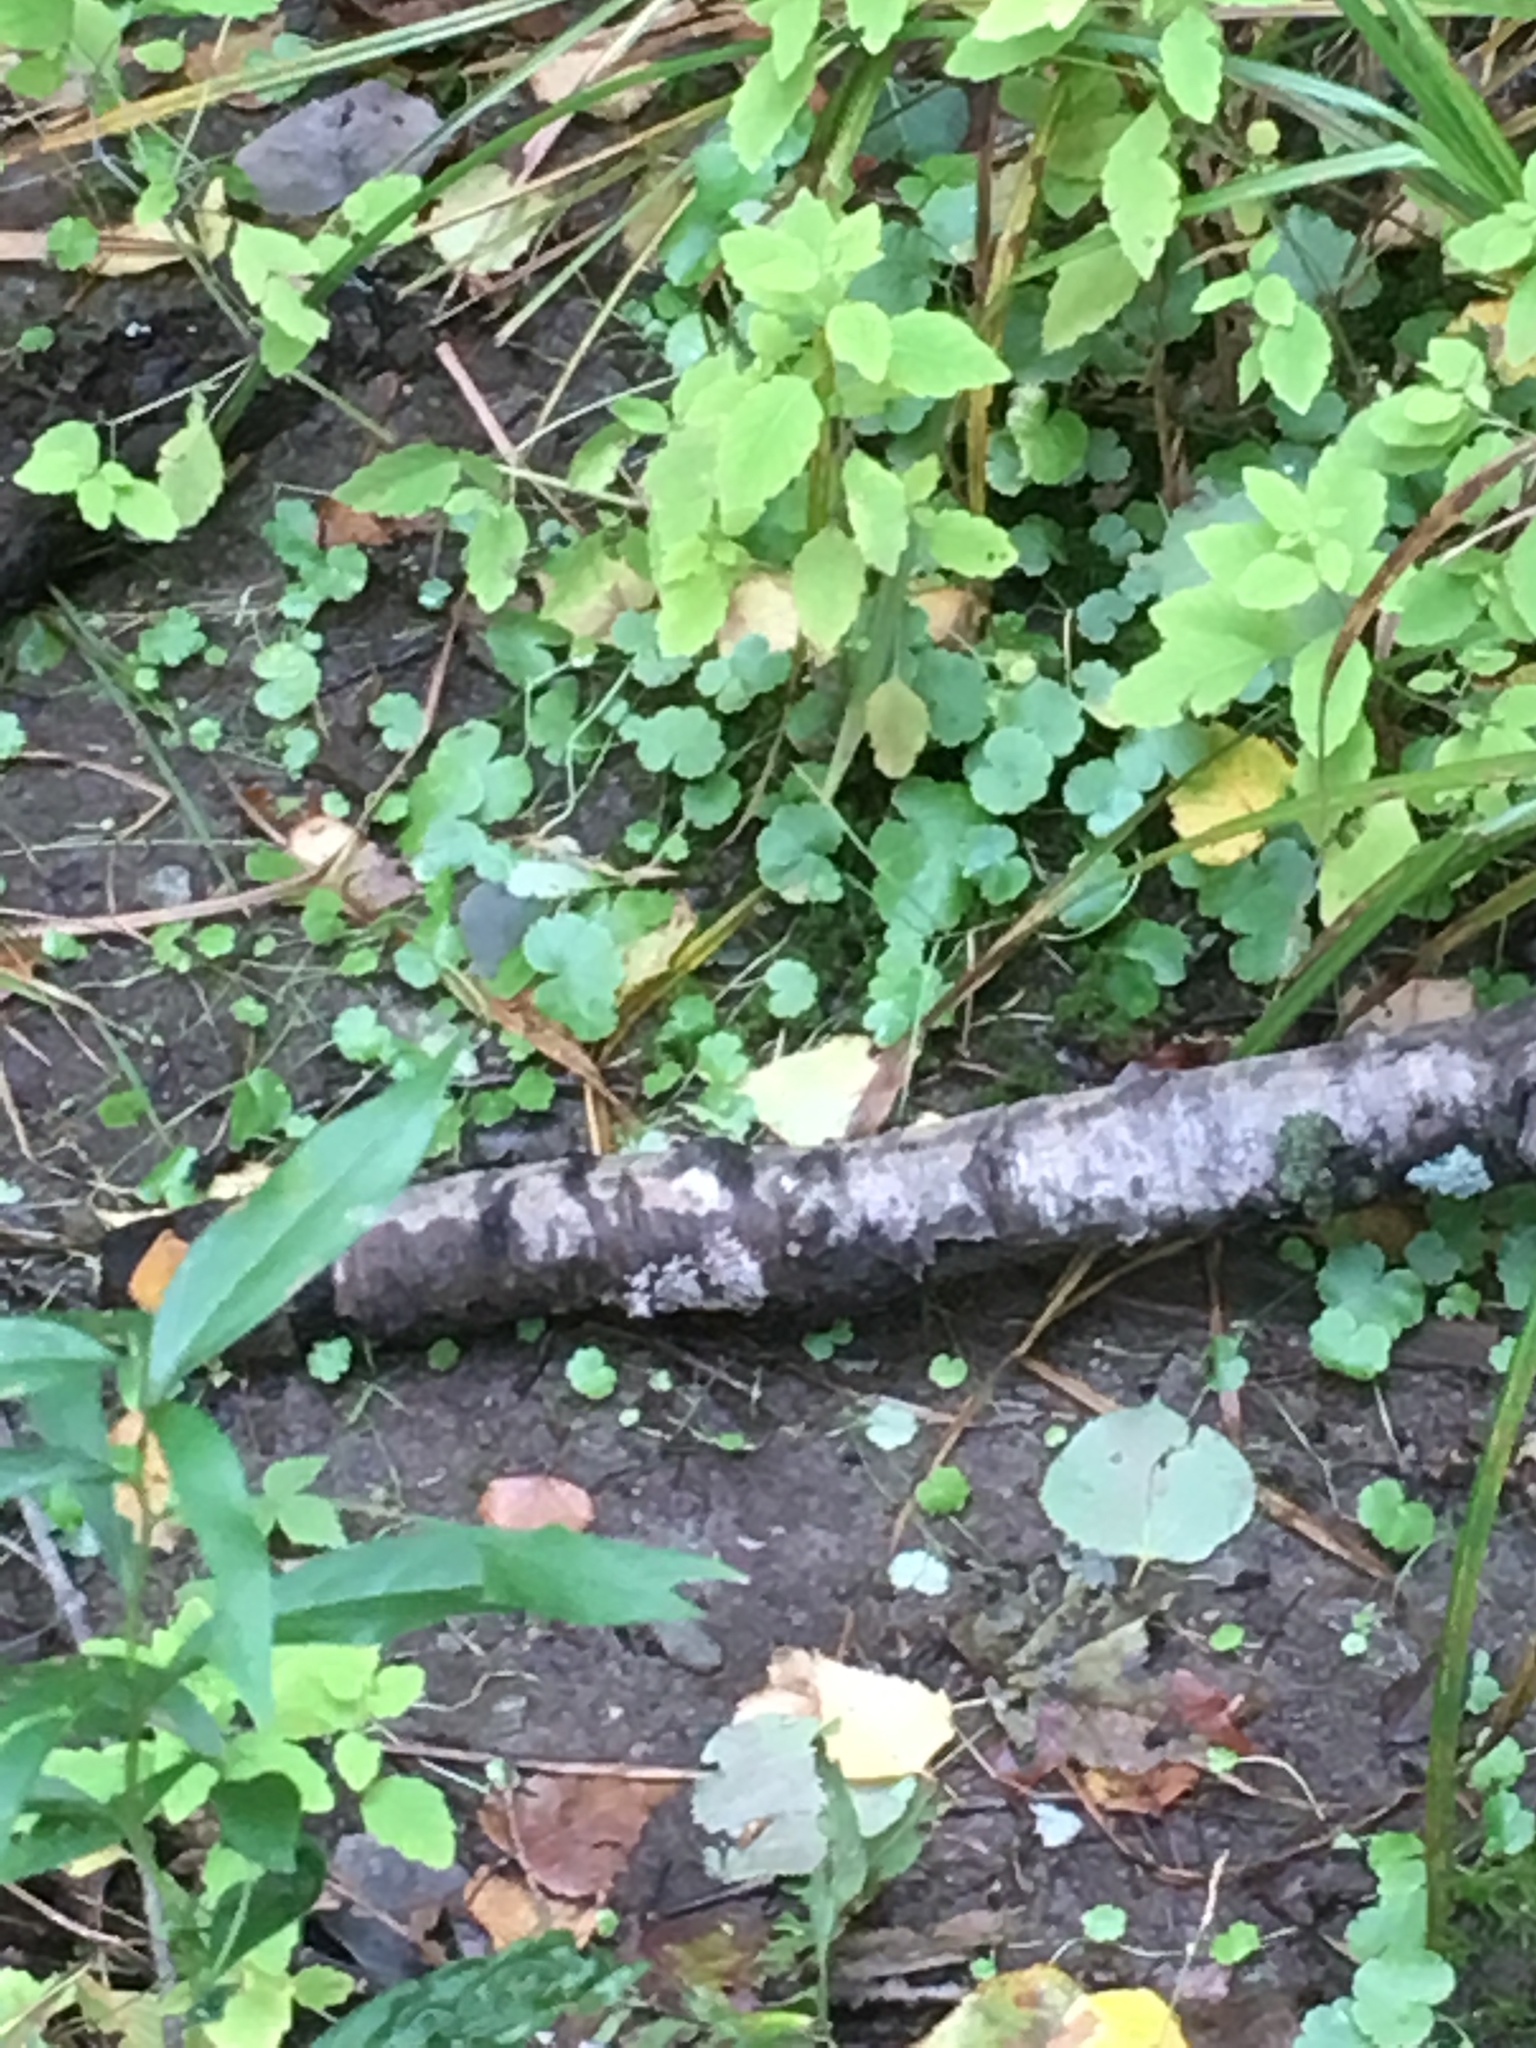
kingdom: Plantae
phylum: Tracheophyta
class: Magnoliopsida
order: Apiales
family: Araliaceae
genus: Hydrocotyle
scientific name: Hydrocotyle americana
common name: American water-pennywort
